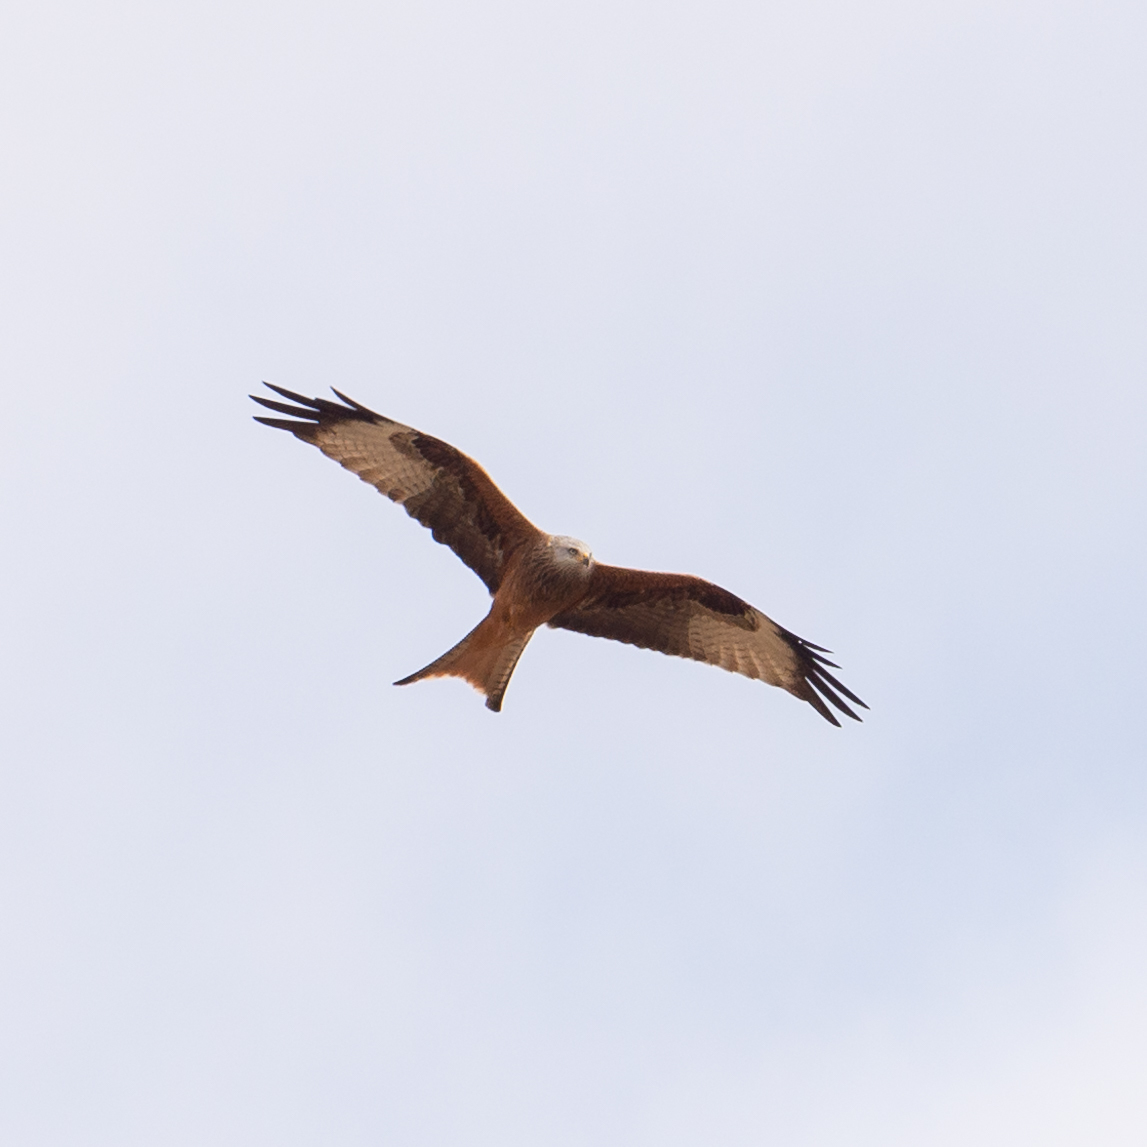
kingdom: Animalia
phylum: Chordata
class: Aves
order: Accipitriformes
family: Accipitridae
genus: Milvus
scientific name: Milvus milvus
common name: Red kite
